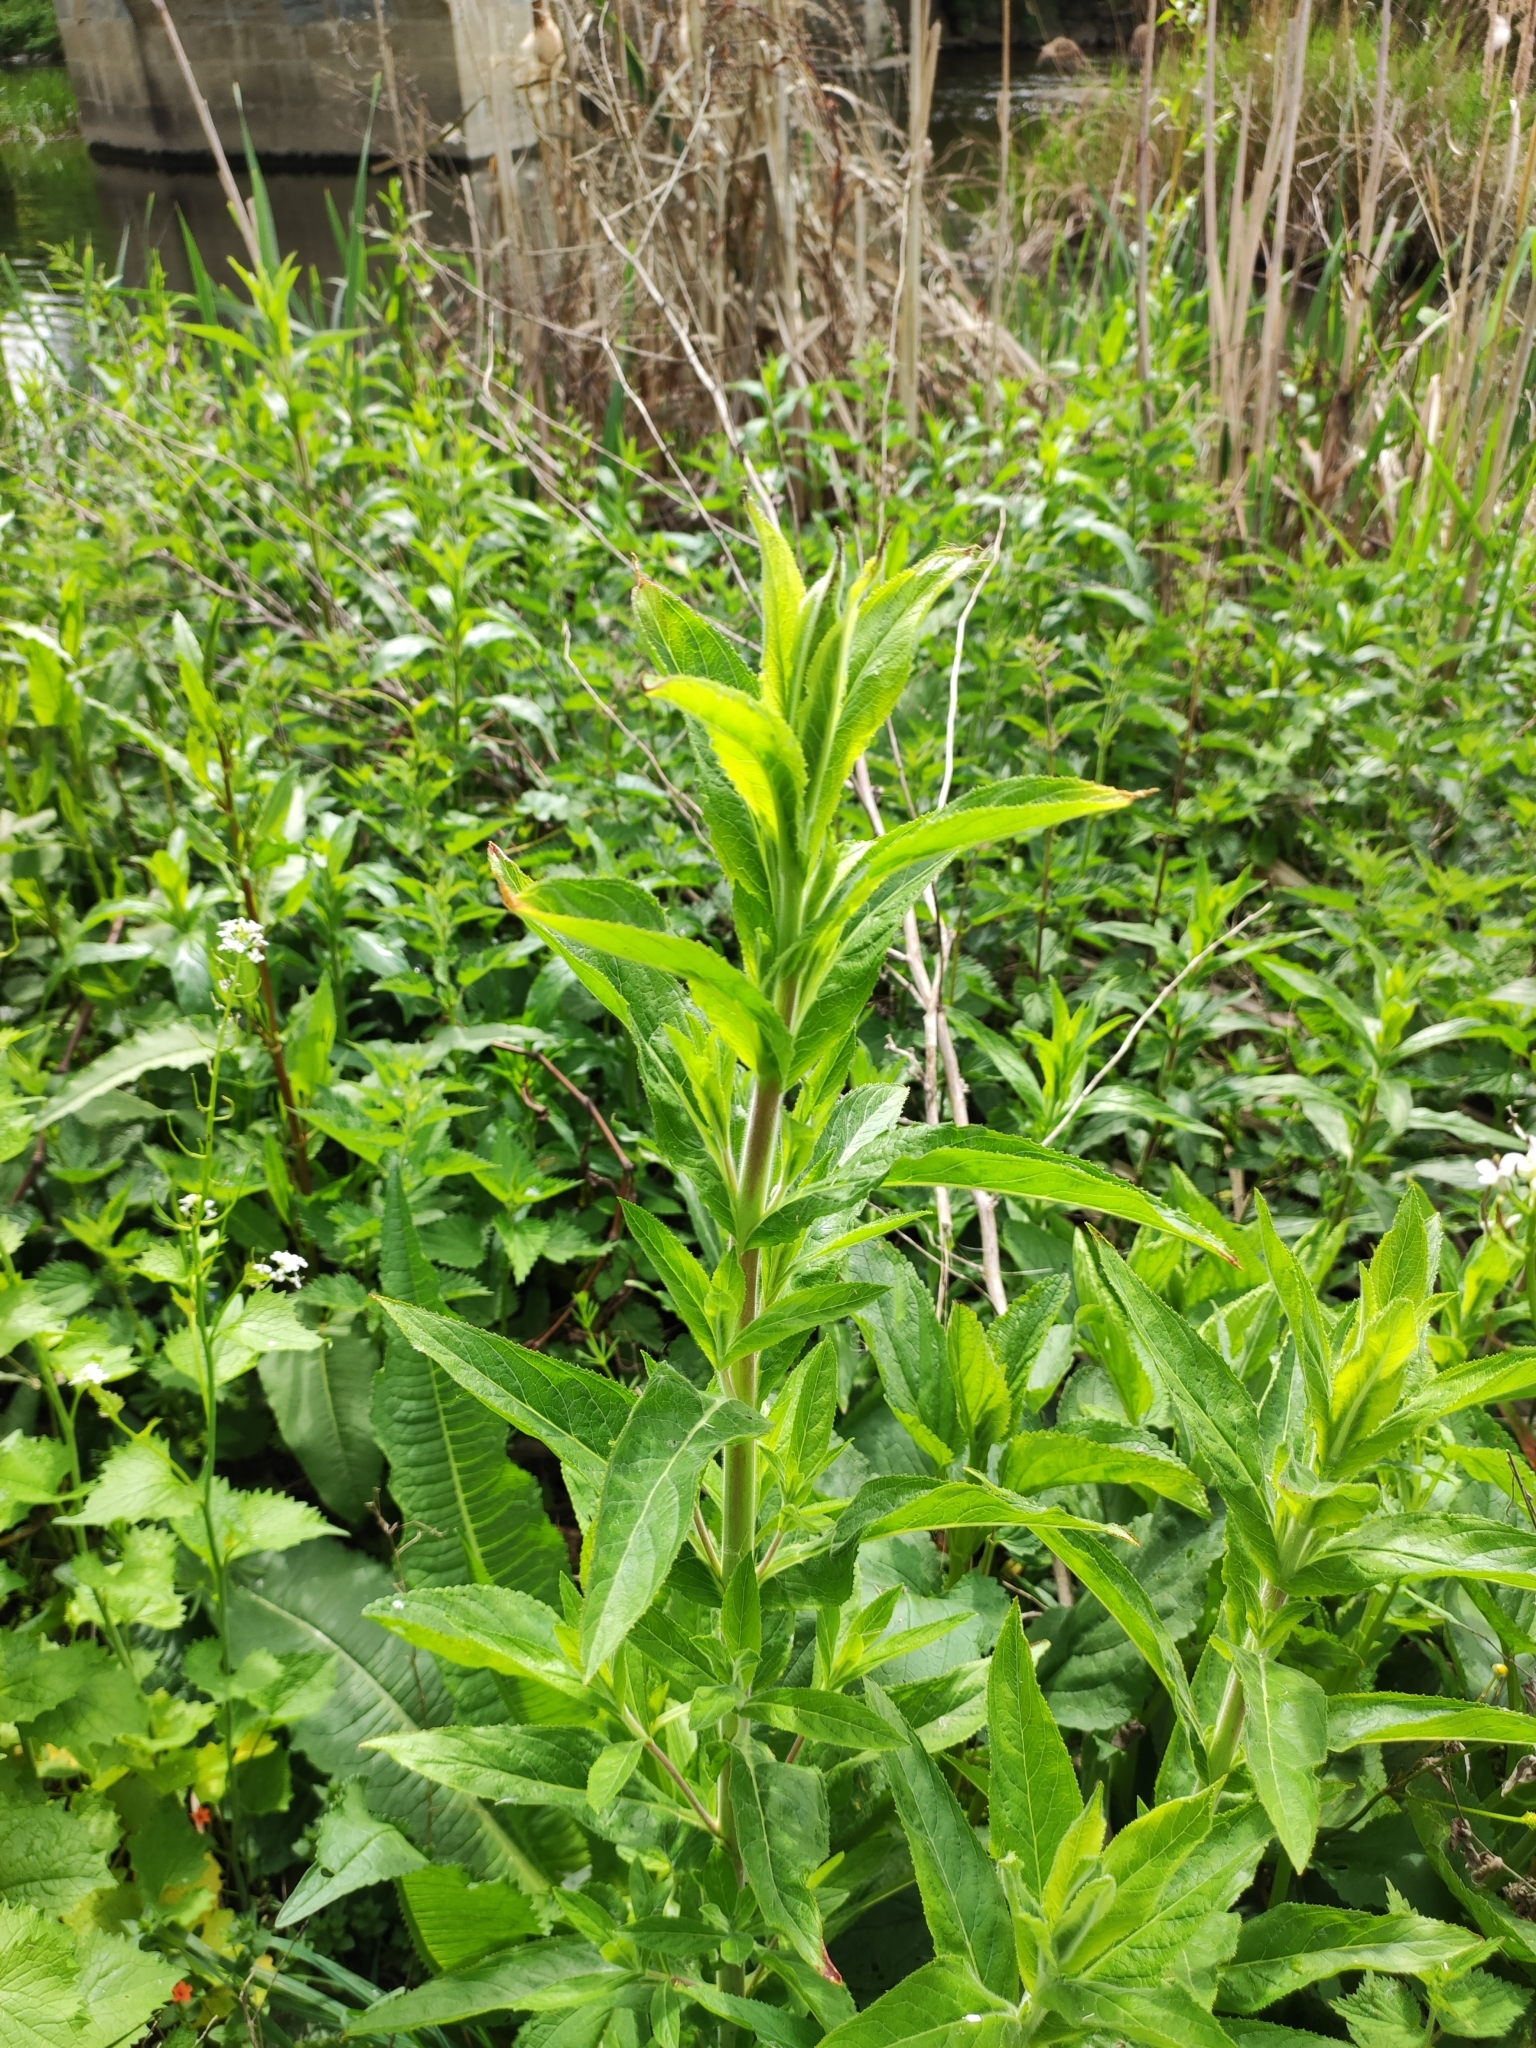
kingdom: Plantae
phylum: Tracheophyta
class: Magnoliopsida
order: Myrtales
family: Onagraceae
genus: Epilobium
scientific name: Epilobium hirsutum
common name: Great willowherb
